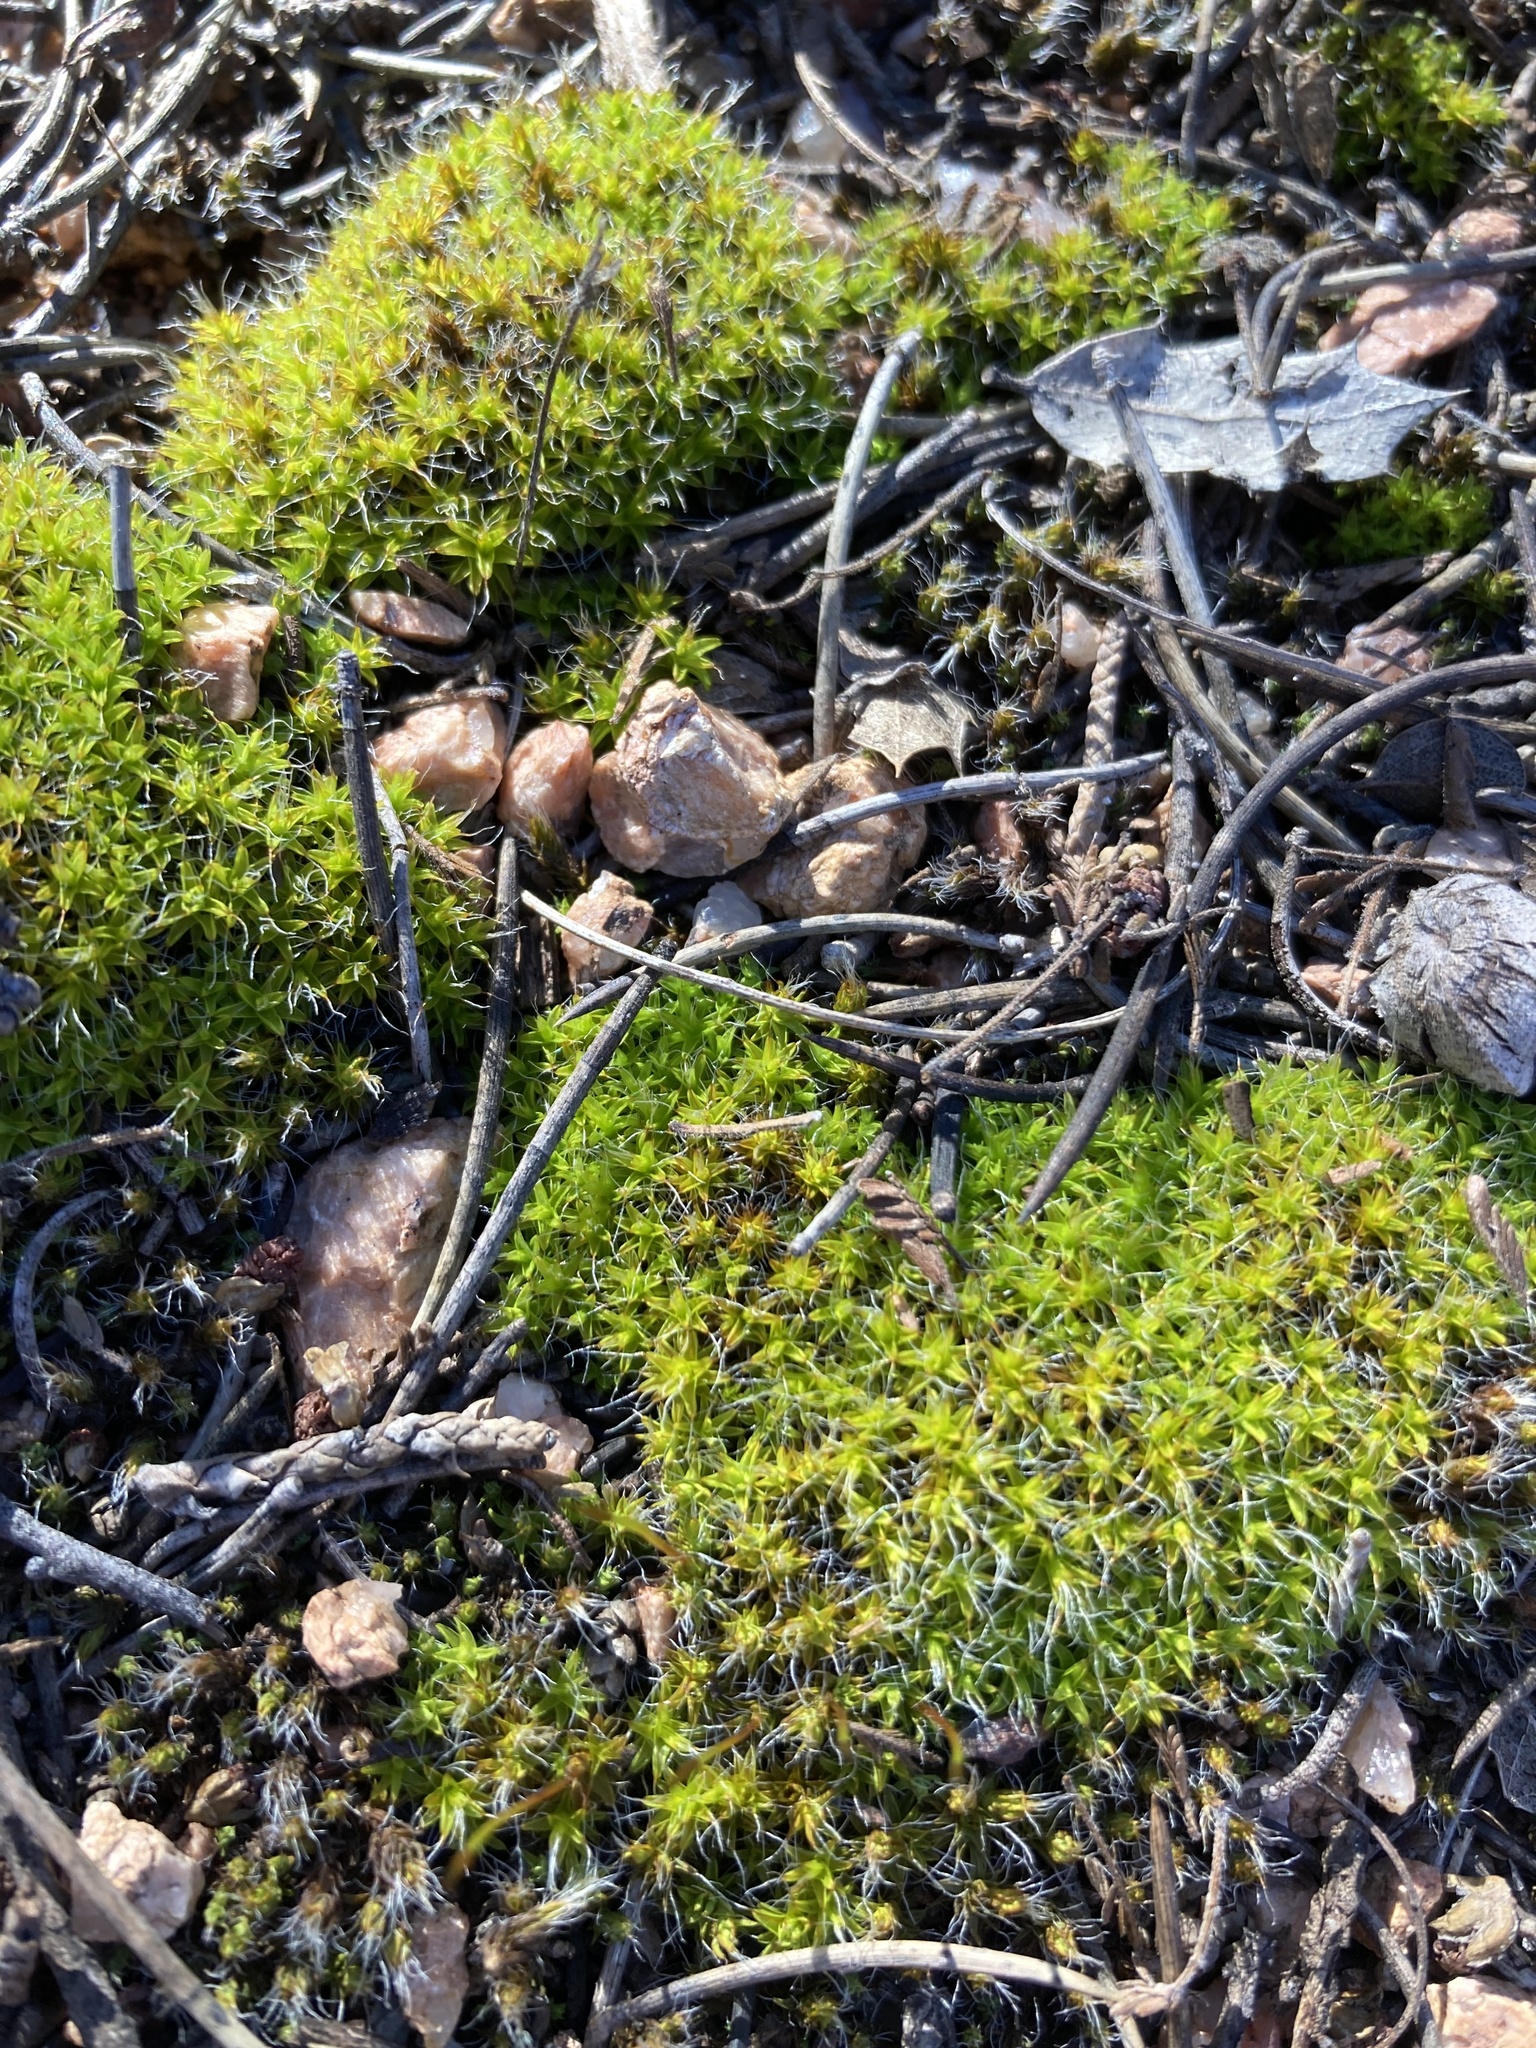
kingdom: Plantae
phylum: Bryophyta
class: Bryopsida
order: Pottiales
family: Pottiaceae
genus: Syntrichia
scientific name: Syntrichia ruralis
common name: Sidewalk screw moss
